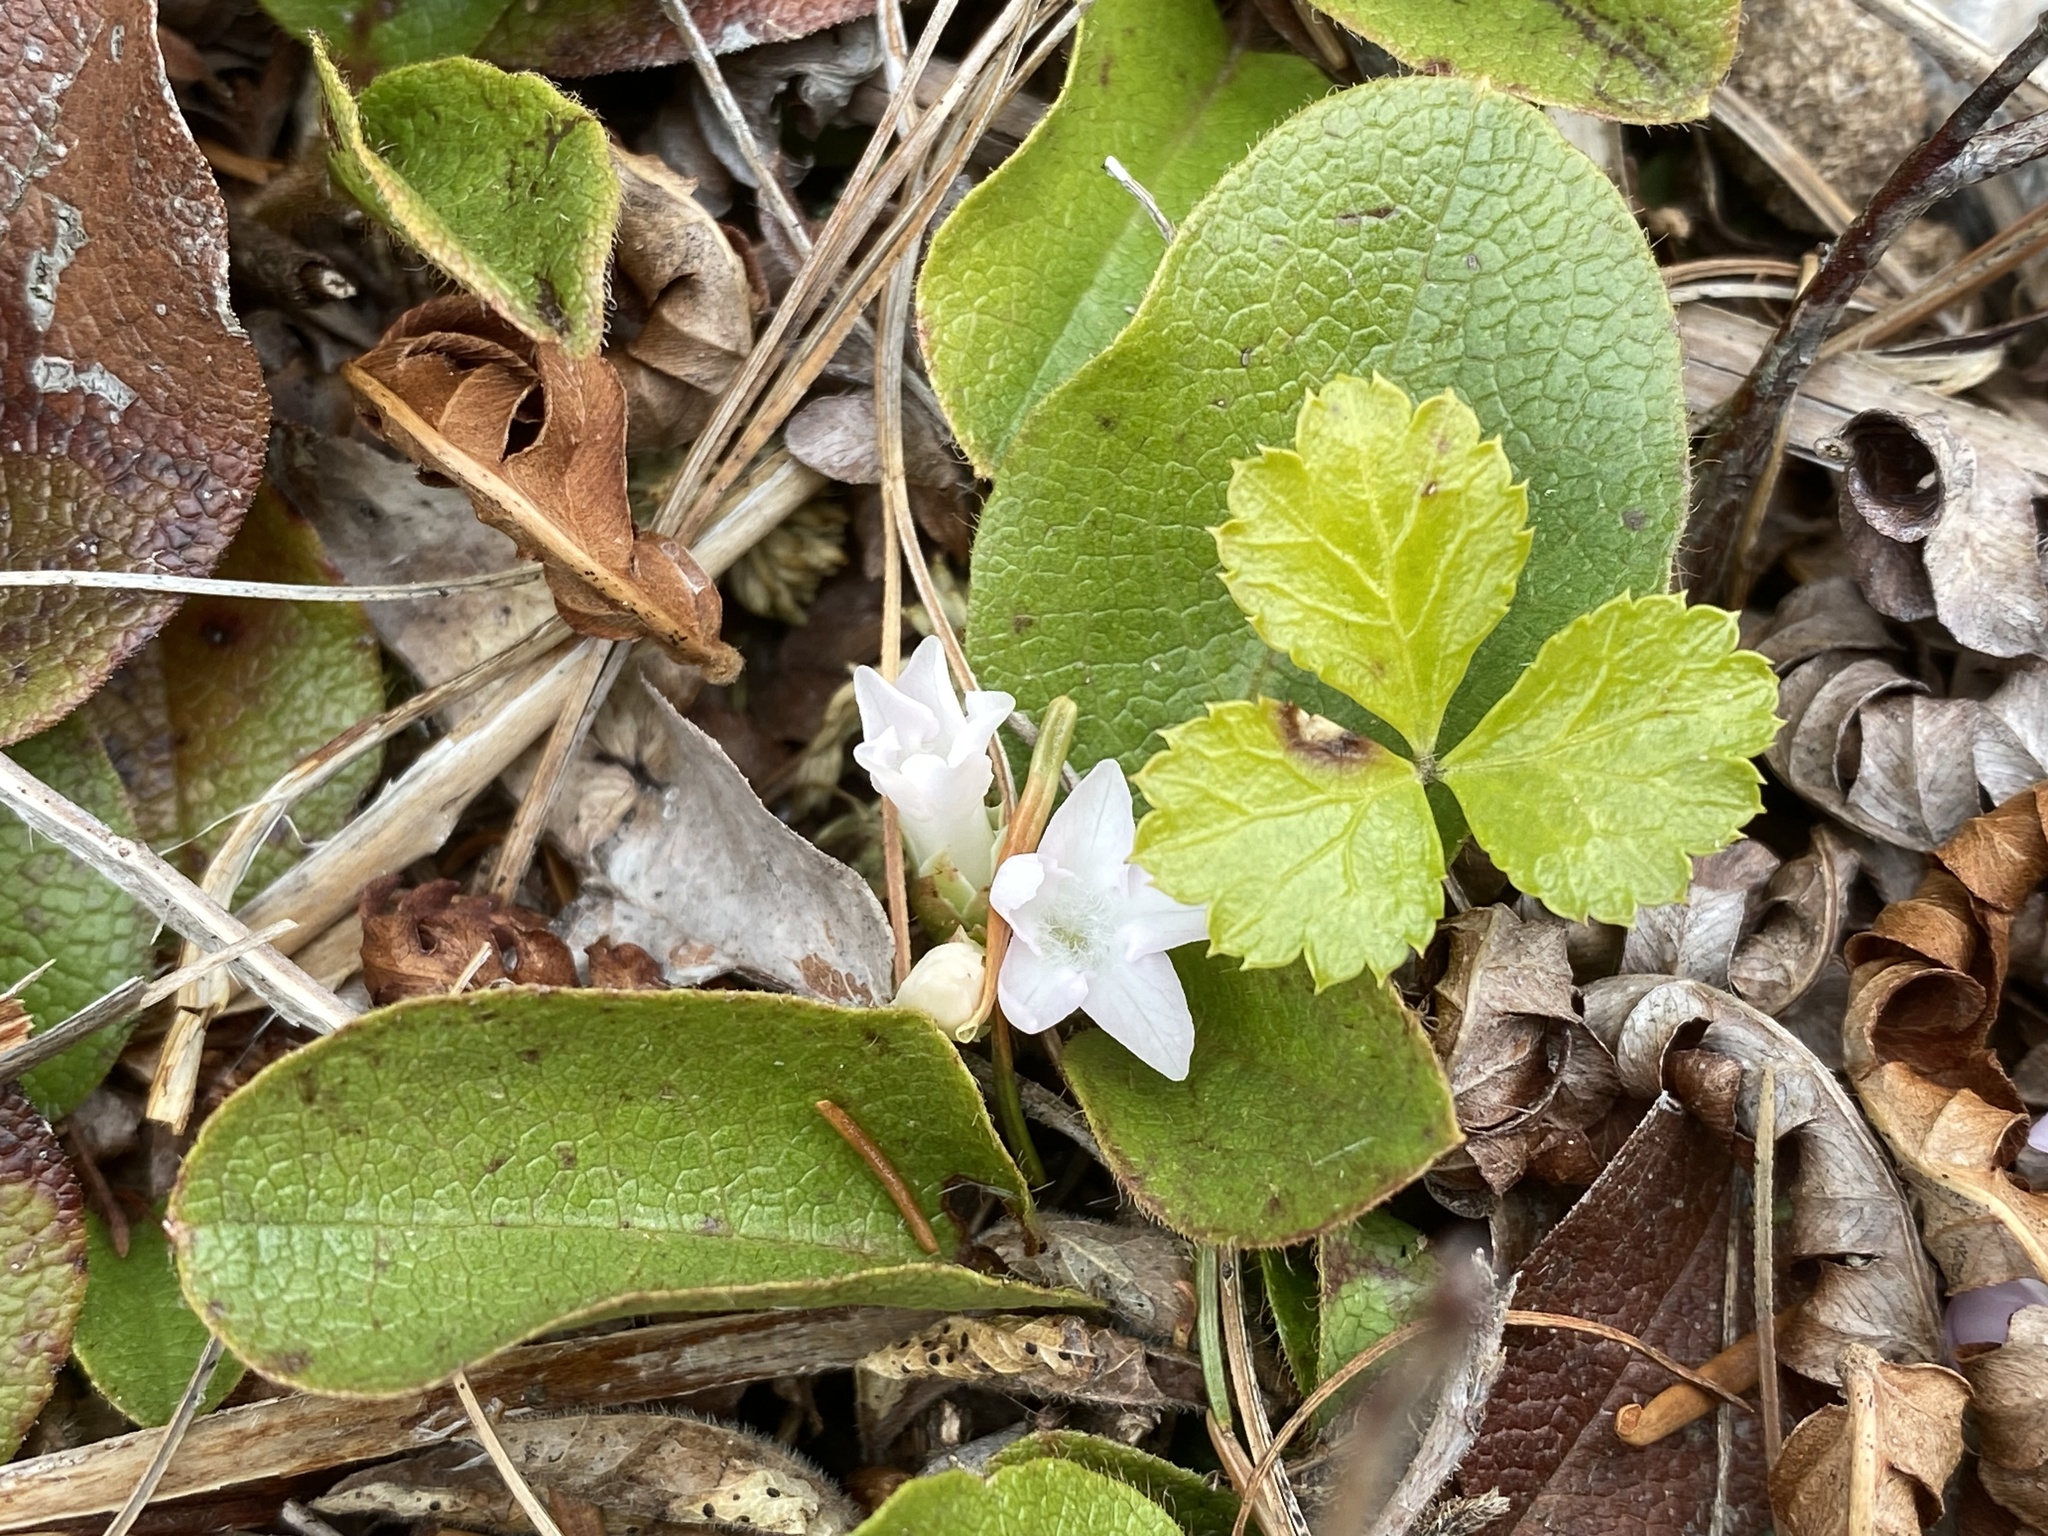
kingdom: Plantae
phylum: Tracheophyta
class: Magnoliopsida
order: Ericales
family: Ericaceae
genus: Epigaea
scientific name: Epigaea repens
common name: Gravelroot
